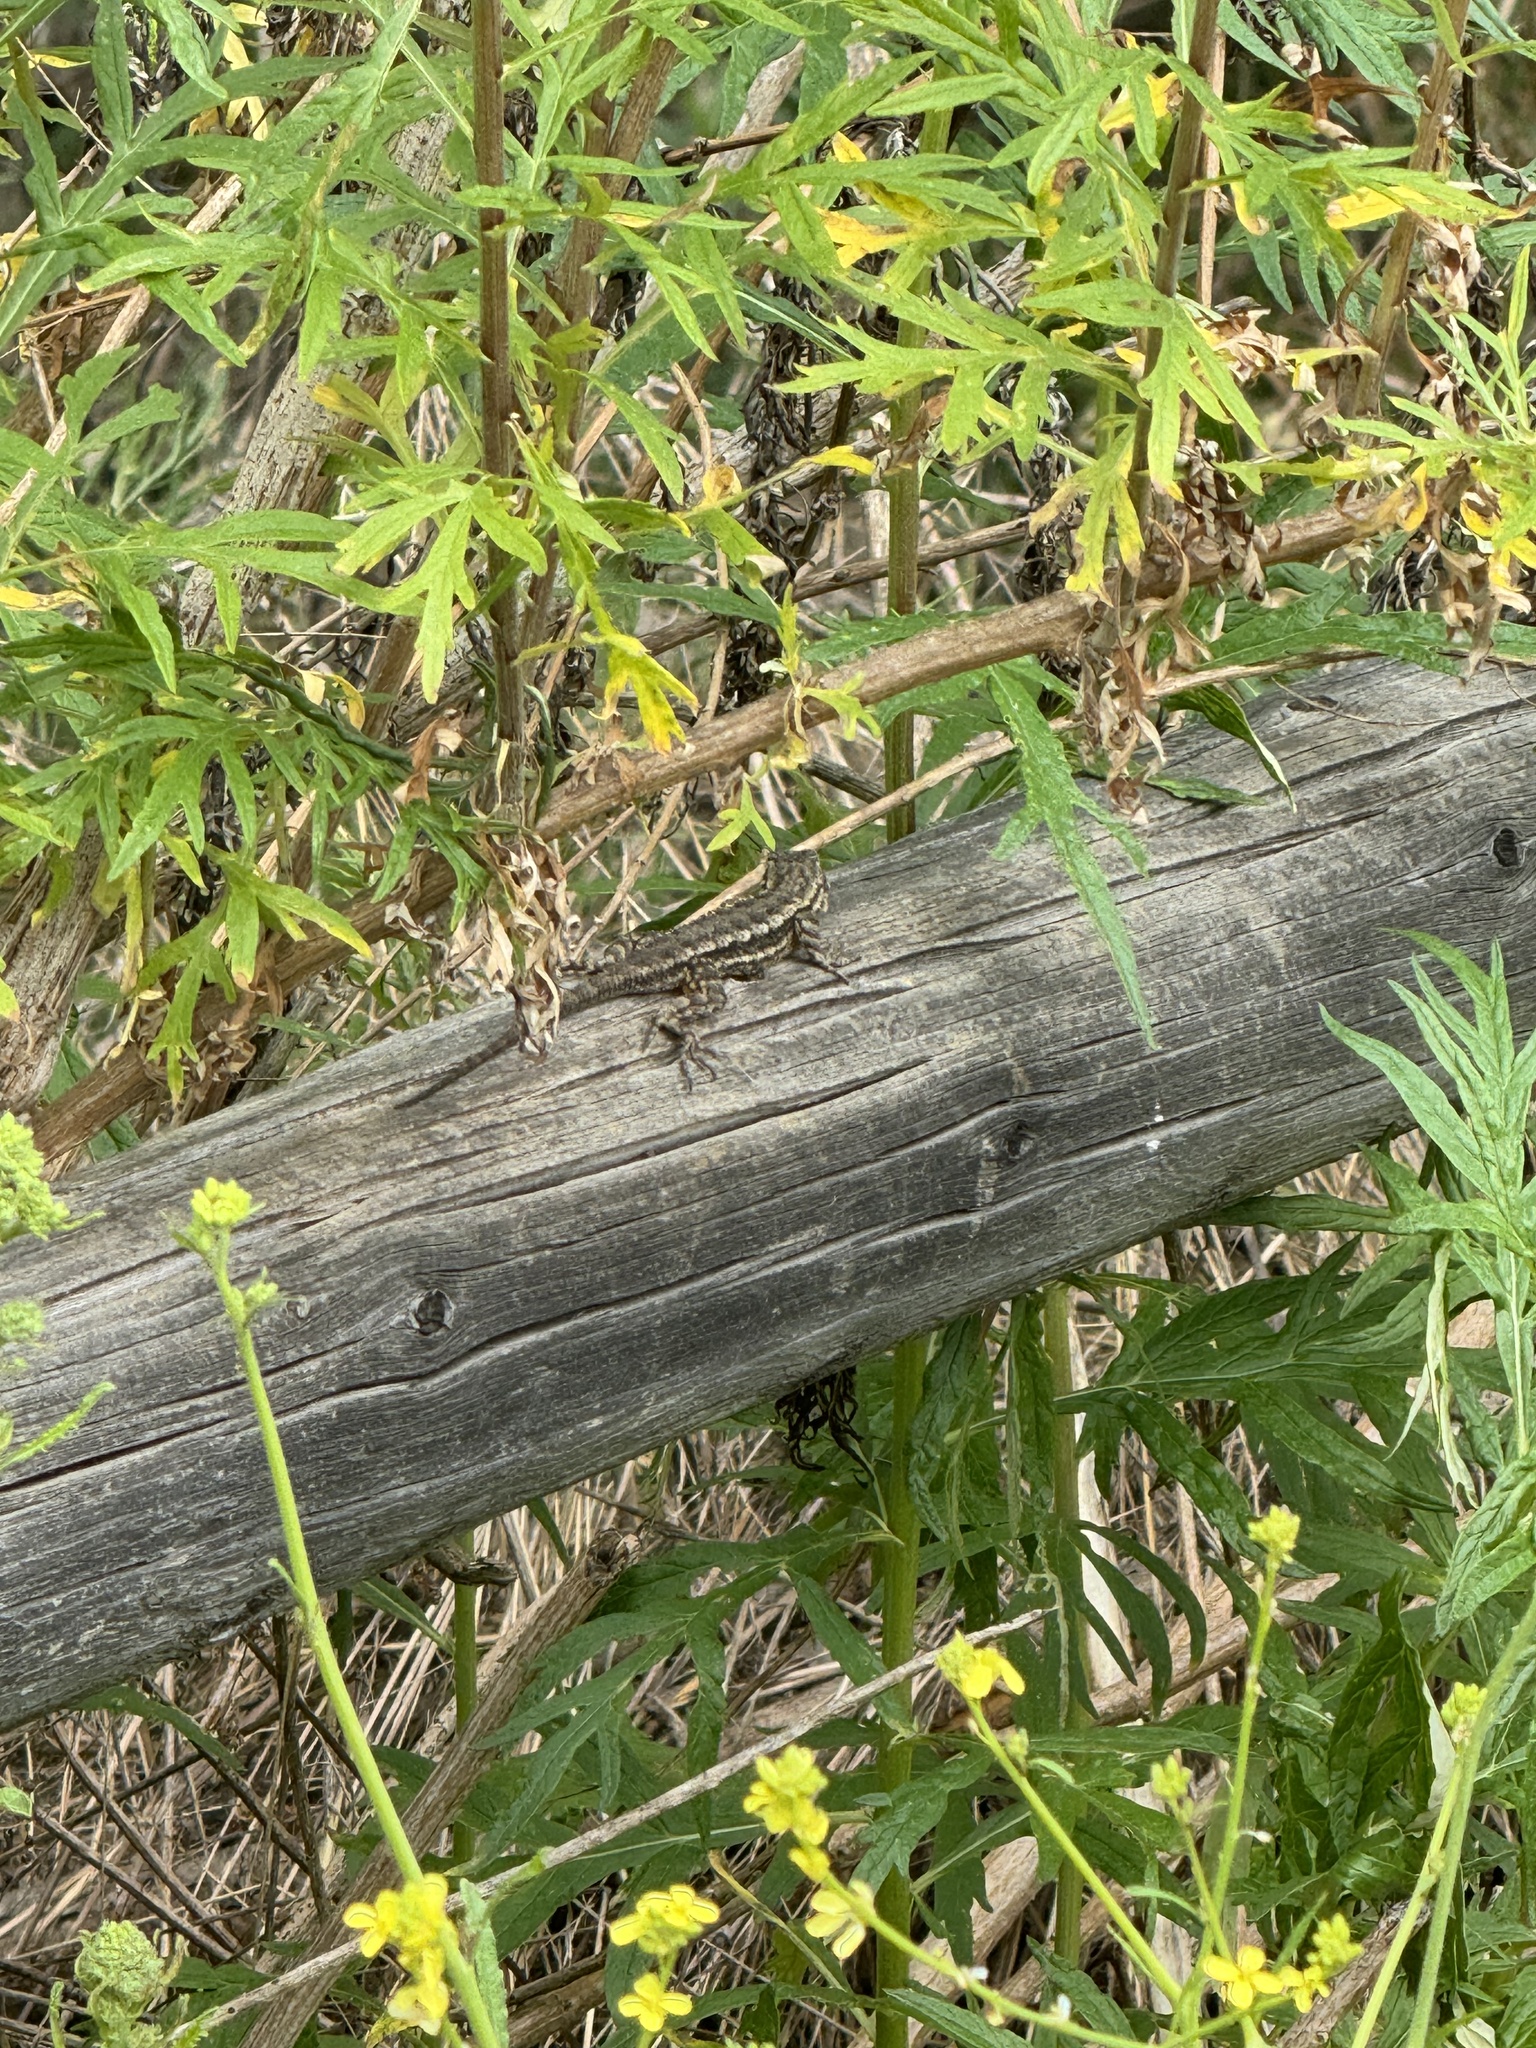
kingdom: Animalia
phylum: Chordata
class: Squamata
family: Phrynosomatidae
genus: Sceloporus
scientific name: Sceloporus occidentalis
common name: Western fence lizard
